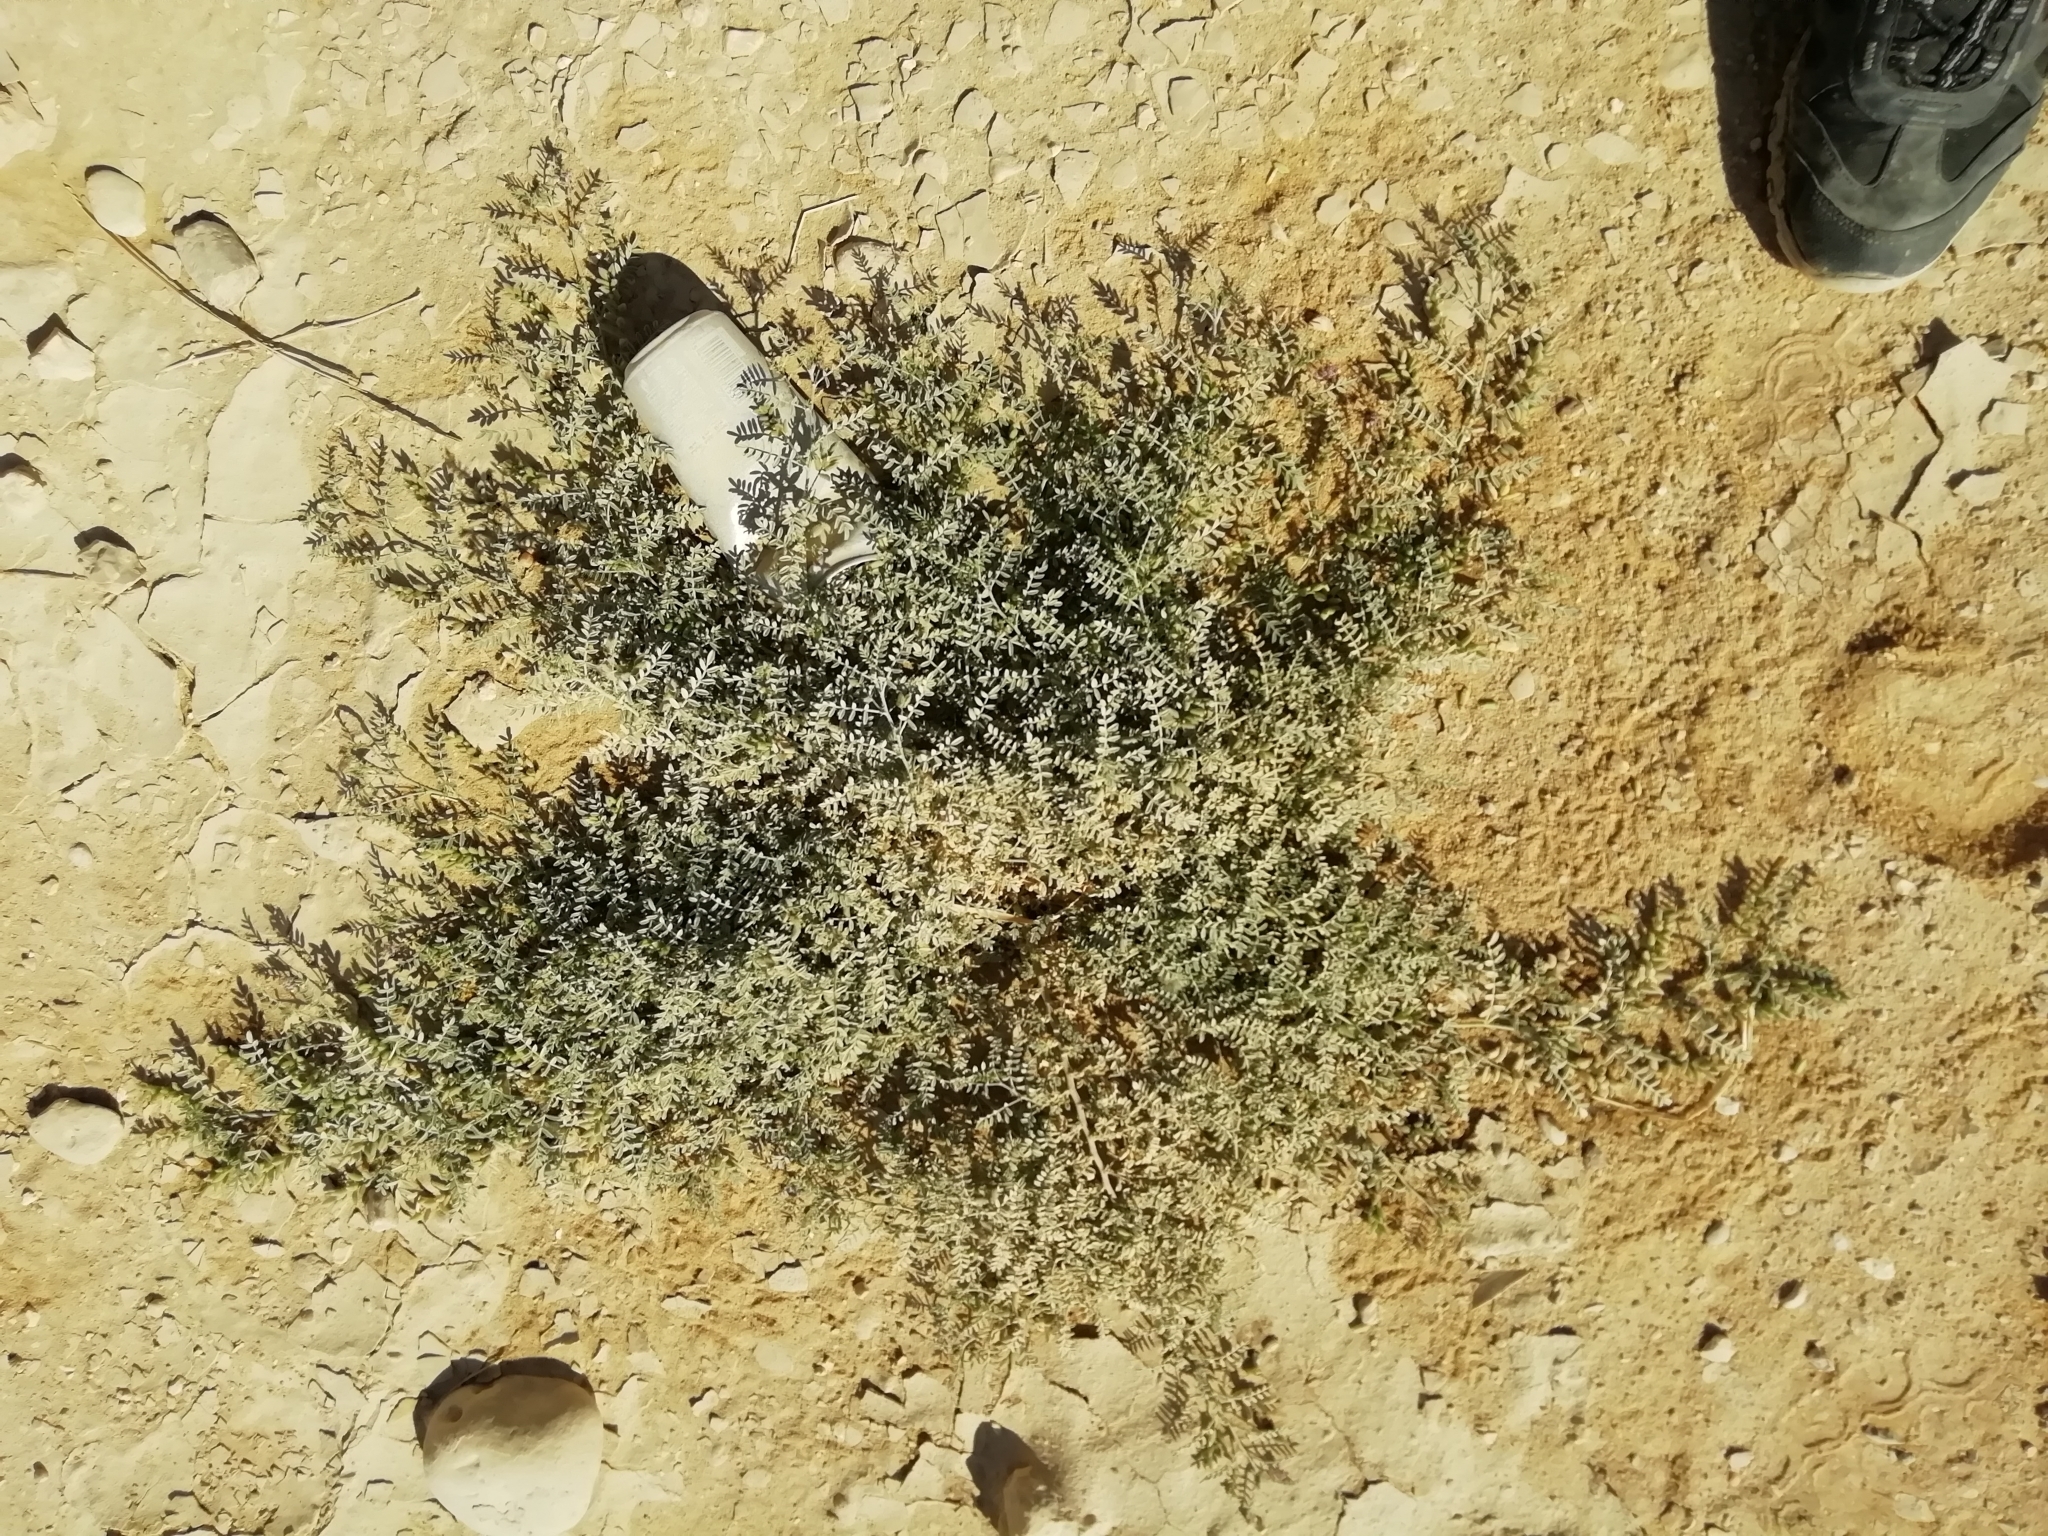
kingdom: Plantae
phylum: Tracheophyta
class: Magnoliopsida
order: Fabales
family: Fabaceae
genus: Astragalus
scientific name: Astragalus vogelii
